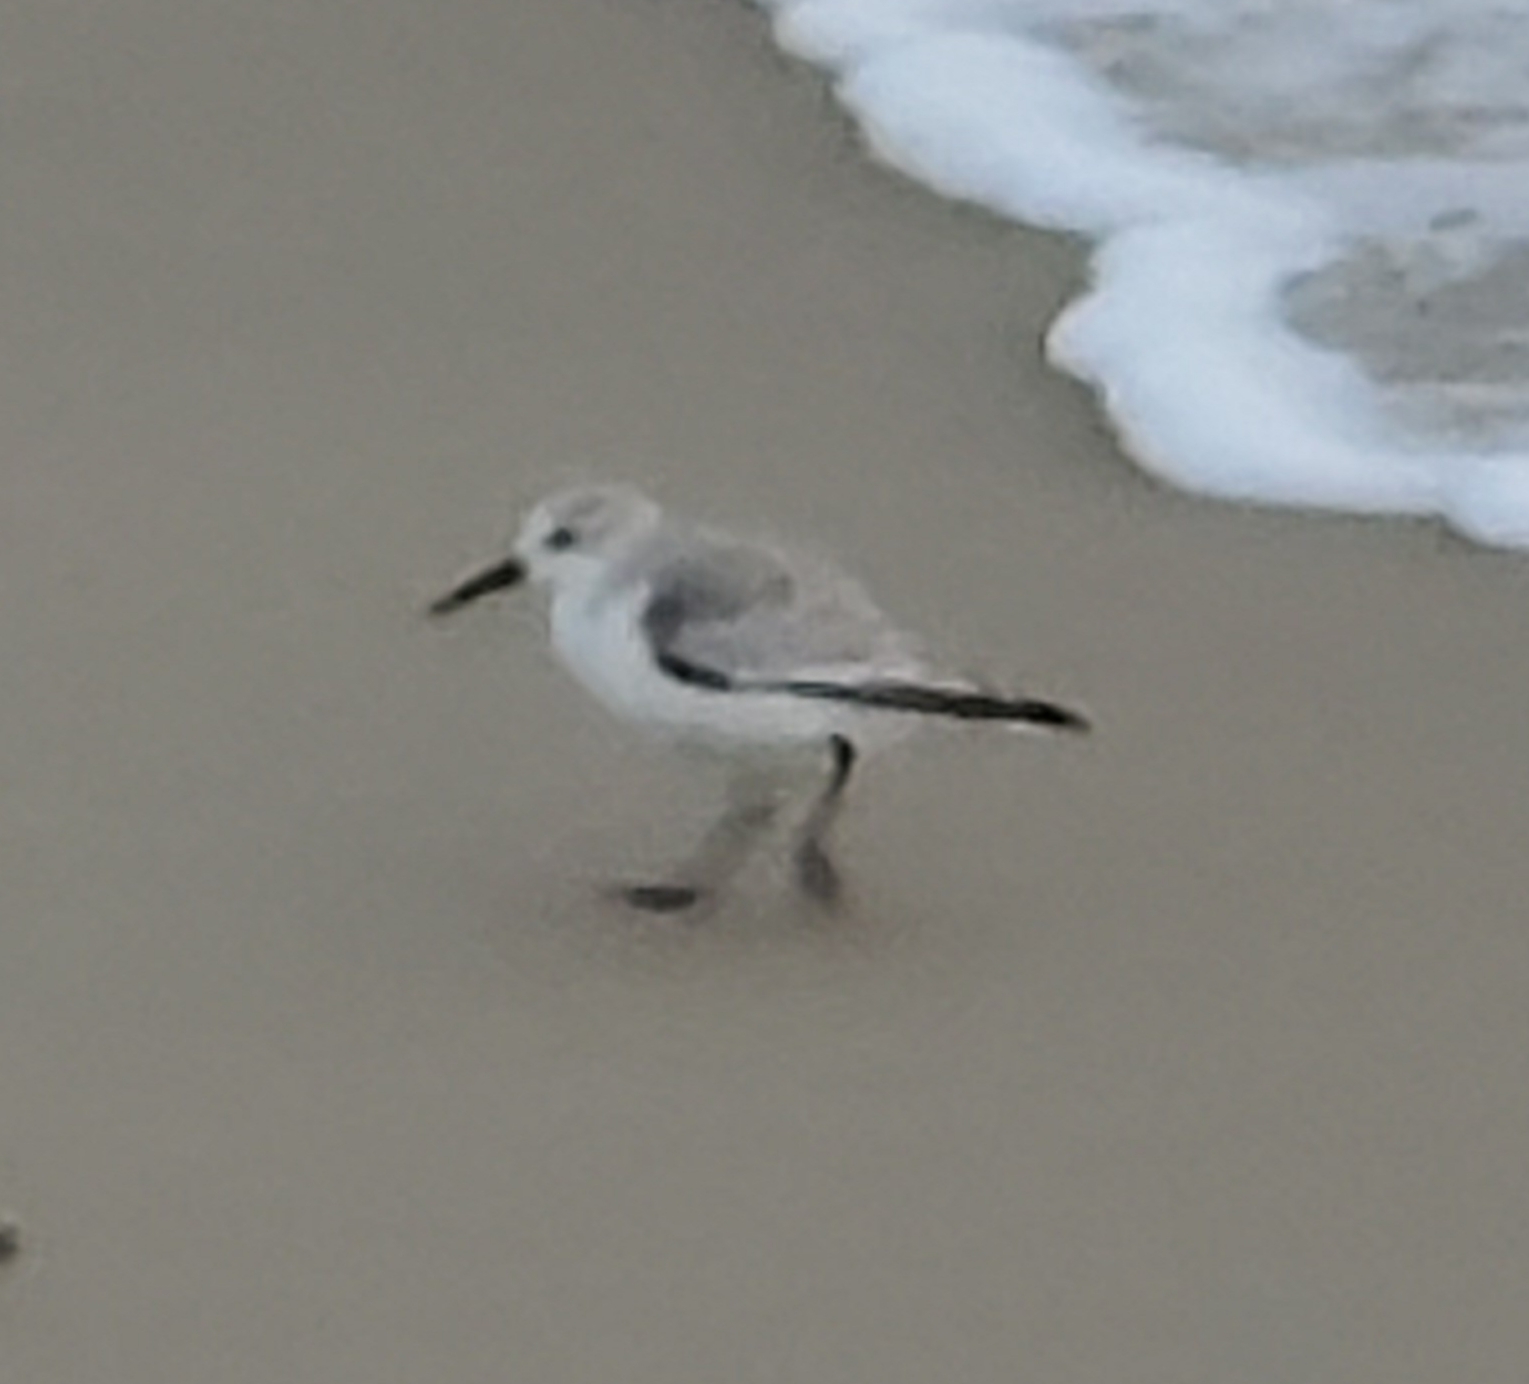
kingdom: Animalia
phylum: Chordata
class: Aves
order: Charadriiformes
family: Scolopacidae
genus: Calidris
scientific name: Calidris alba
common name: Sanderling
